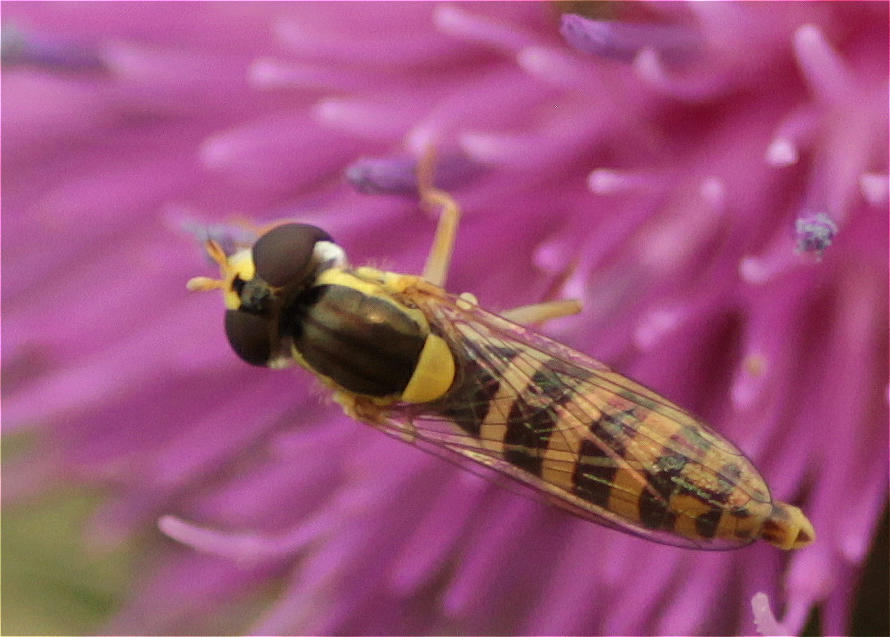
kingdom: Animalia
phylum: Arthropoda
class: Insecta
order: Diptera
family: Syrphidae
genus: Sphaerophoria
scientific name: Sphaerophoria
